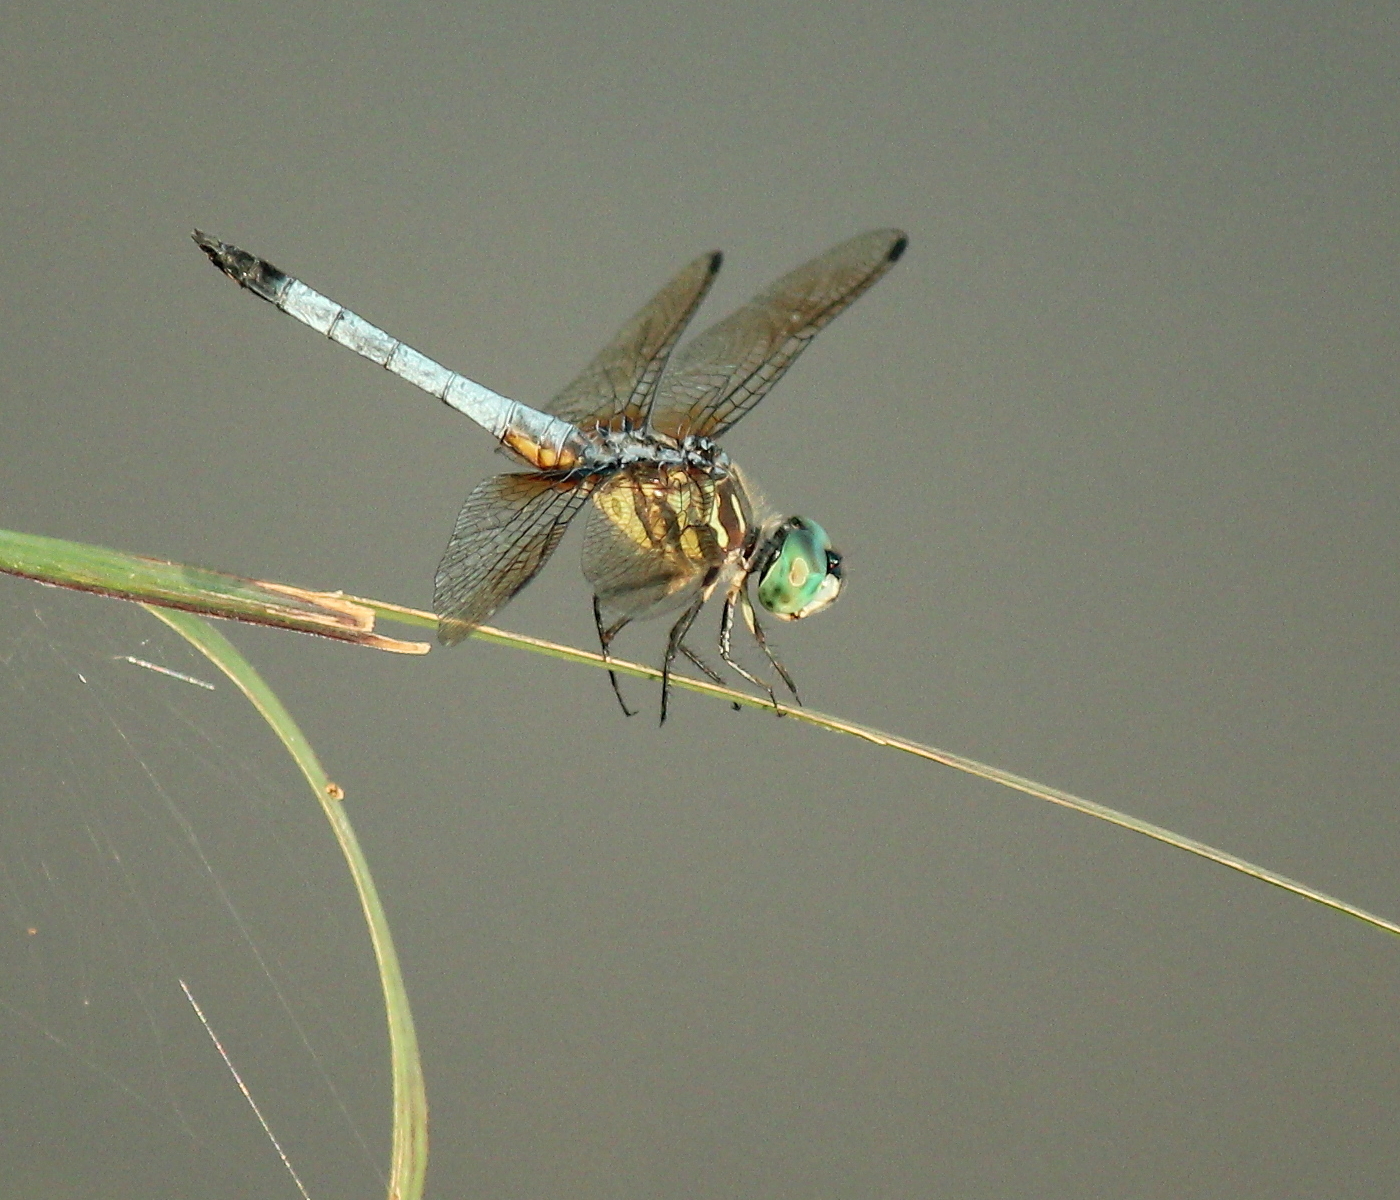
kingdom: Animalia
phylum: Arthropoda
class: Insecta
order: Odonata
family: Libellulidae
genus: Pachydiplax
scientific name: Pachydiplax longipennis
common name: Blue dasher
